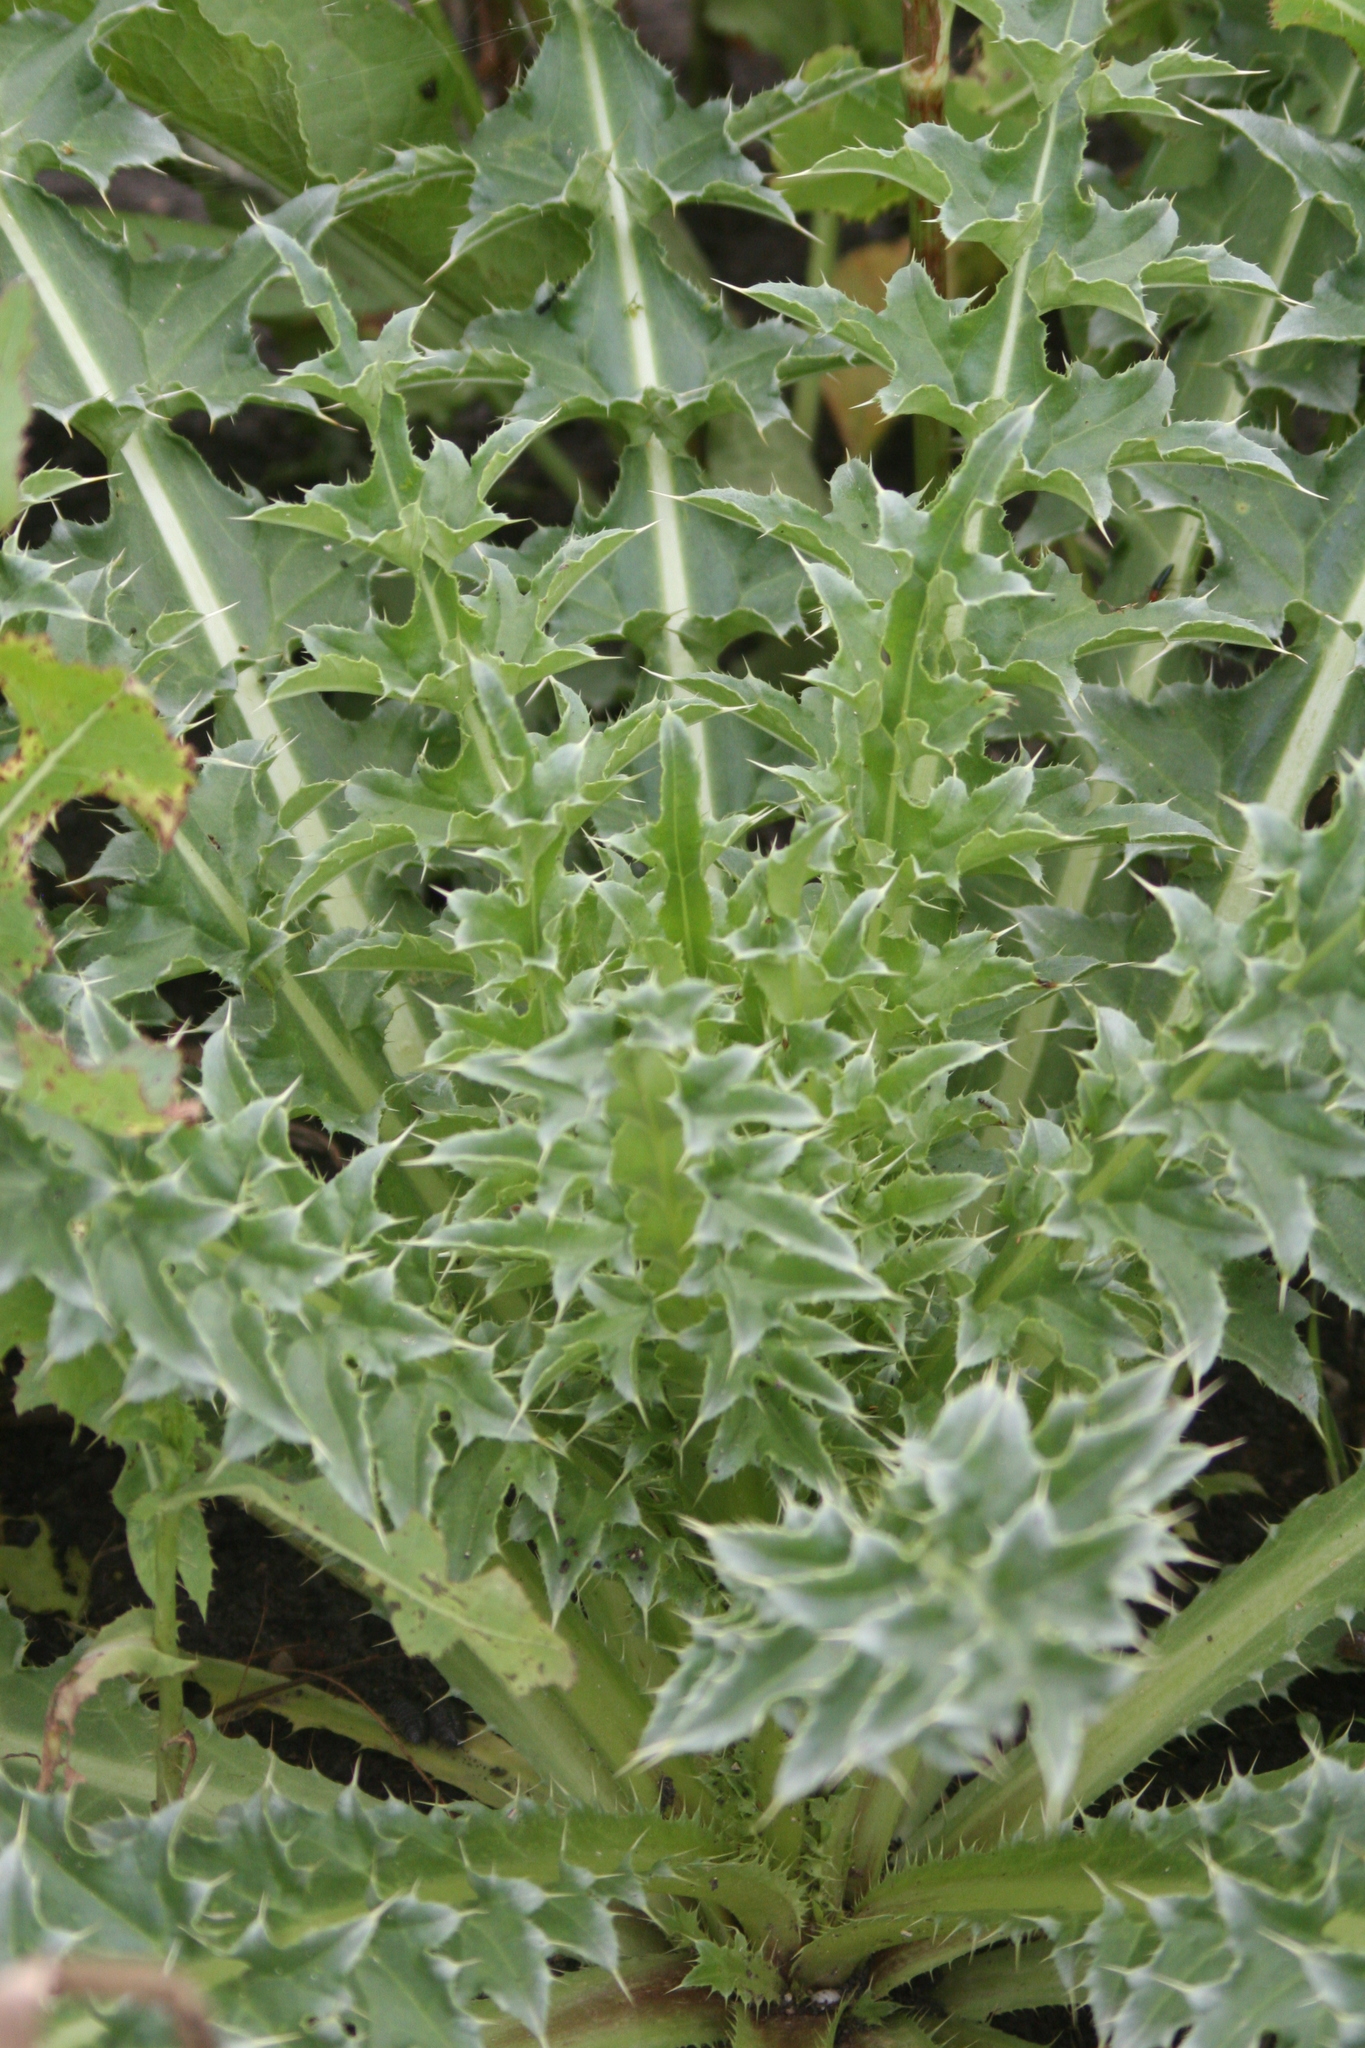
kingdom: Plantae
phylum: Tracheophyta
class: Magnoliopsida
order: Asterales
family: Asteraceae
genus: Carduus
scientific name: Carduus nutans
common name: Musk thistle
